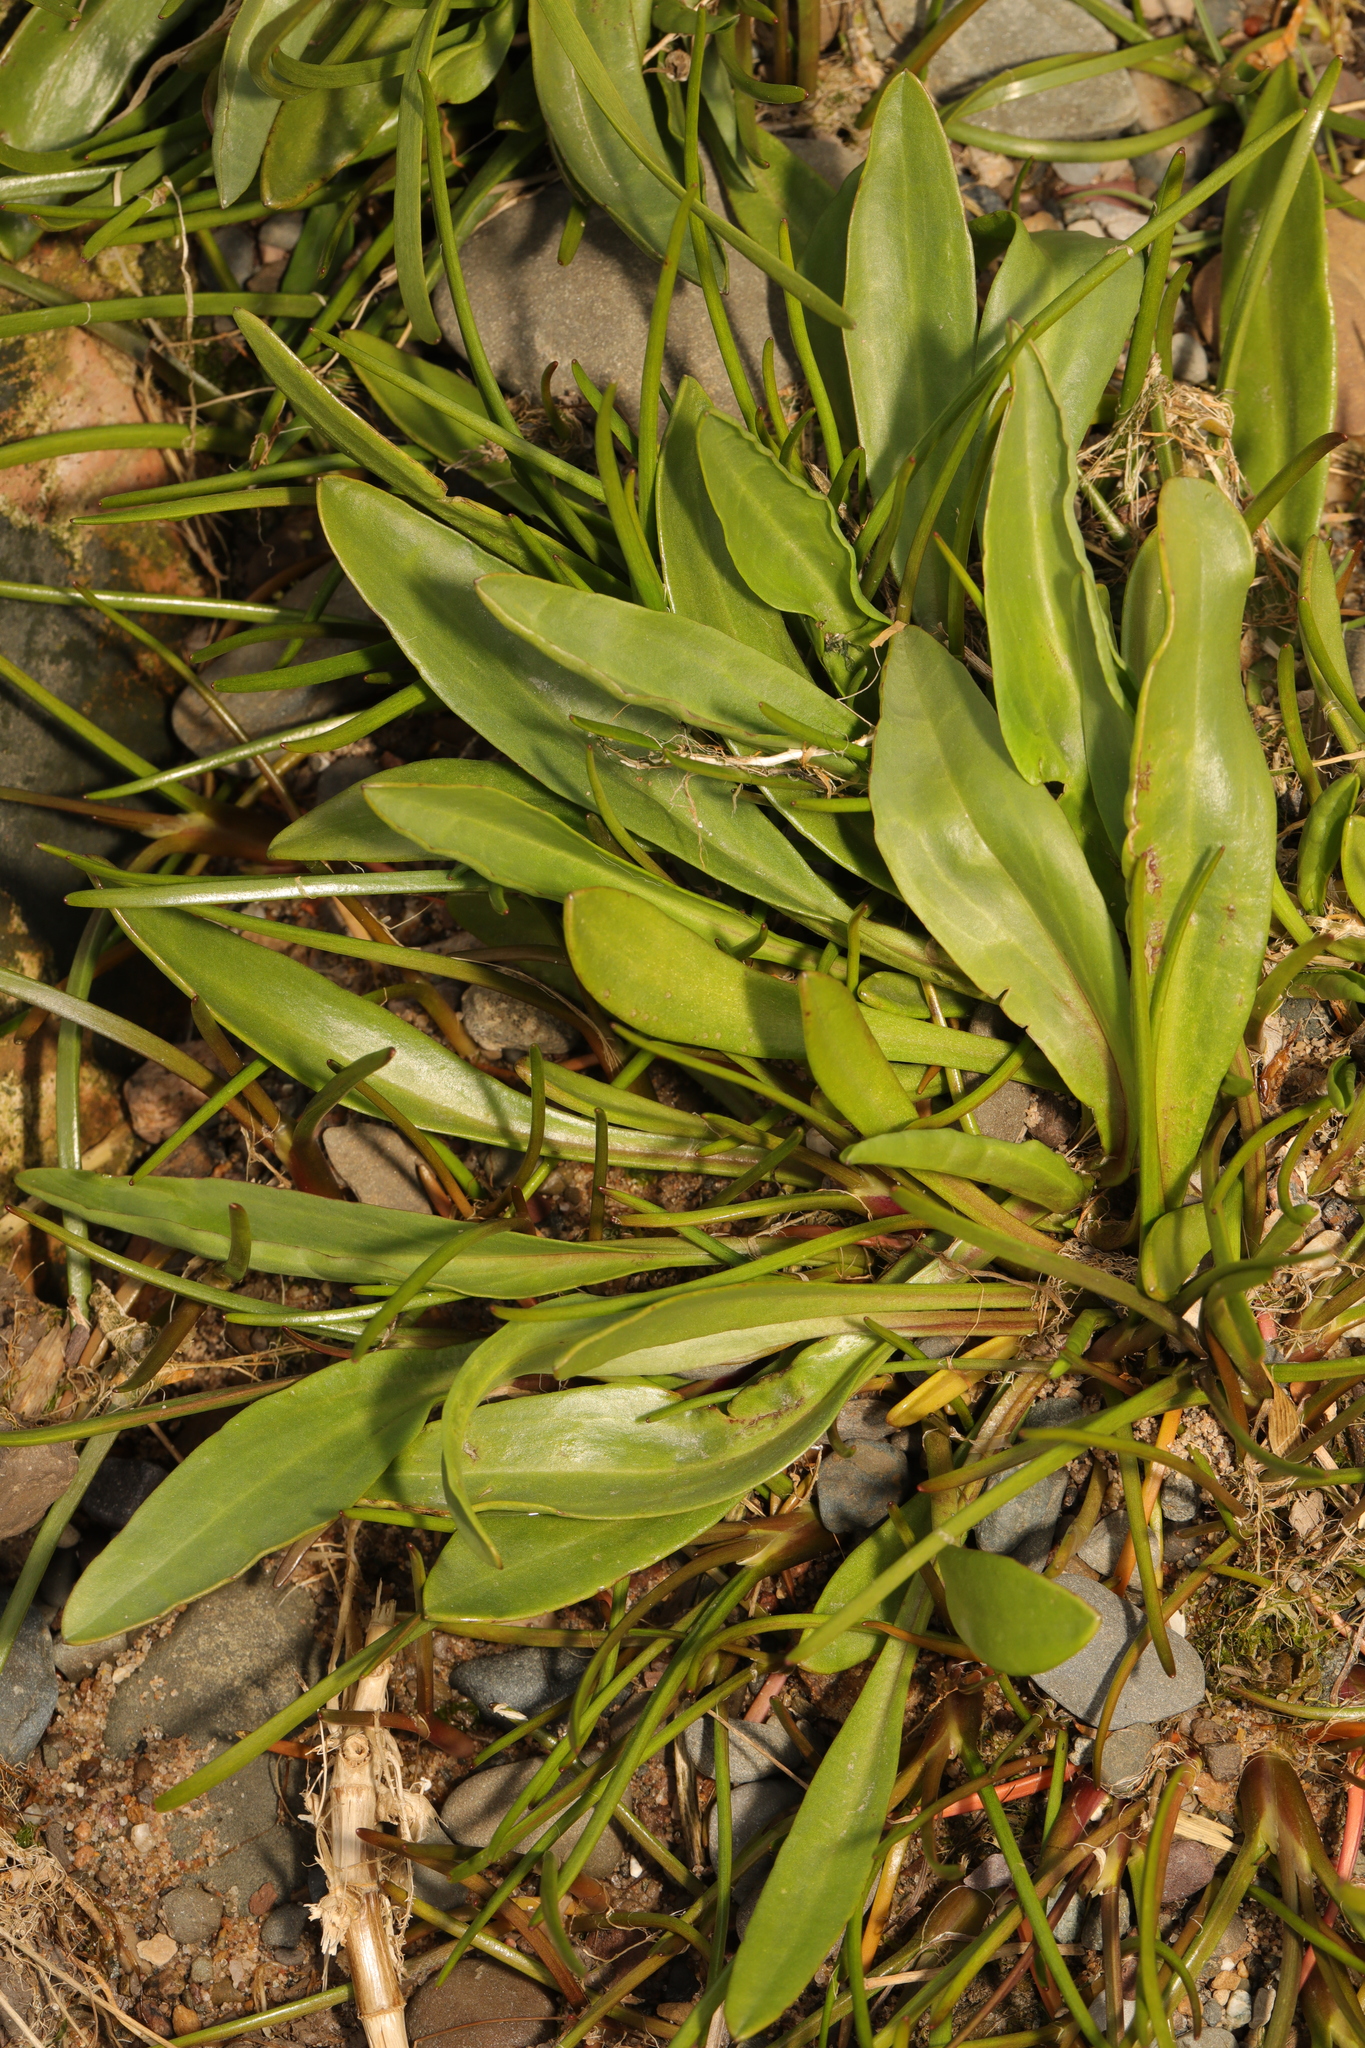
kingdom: Plantae
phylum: Tracheophyta
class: Magnoliopsida
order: Asterales
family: Asteraceae
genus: Tripolium
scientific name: Tripolium pannonicum
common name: Sea aster
